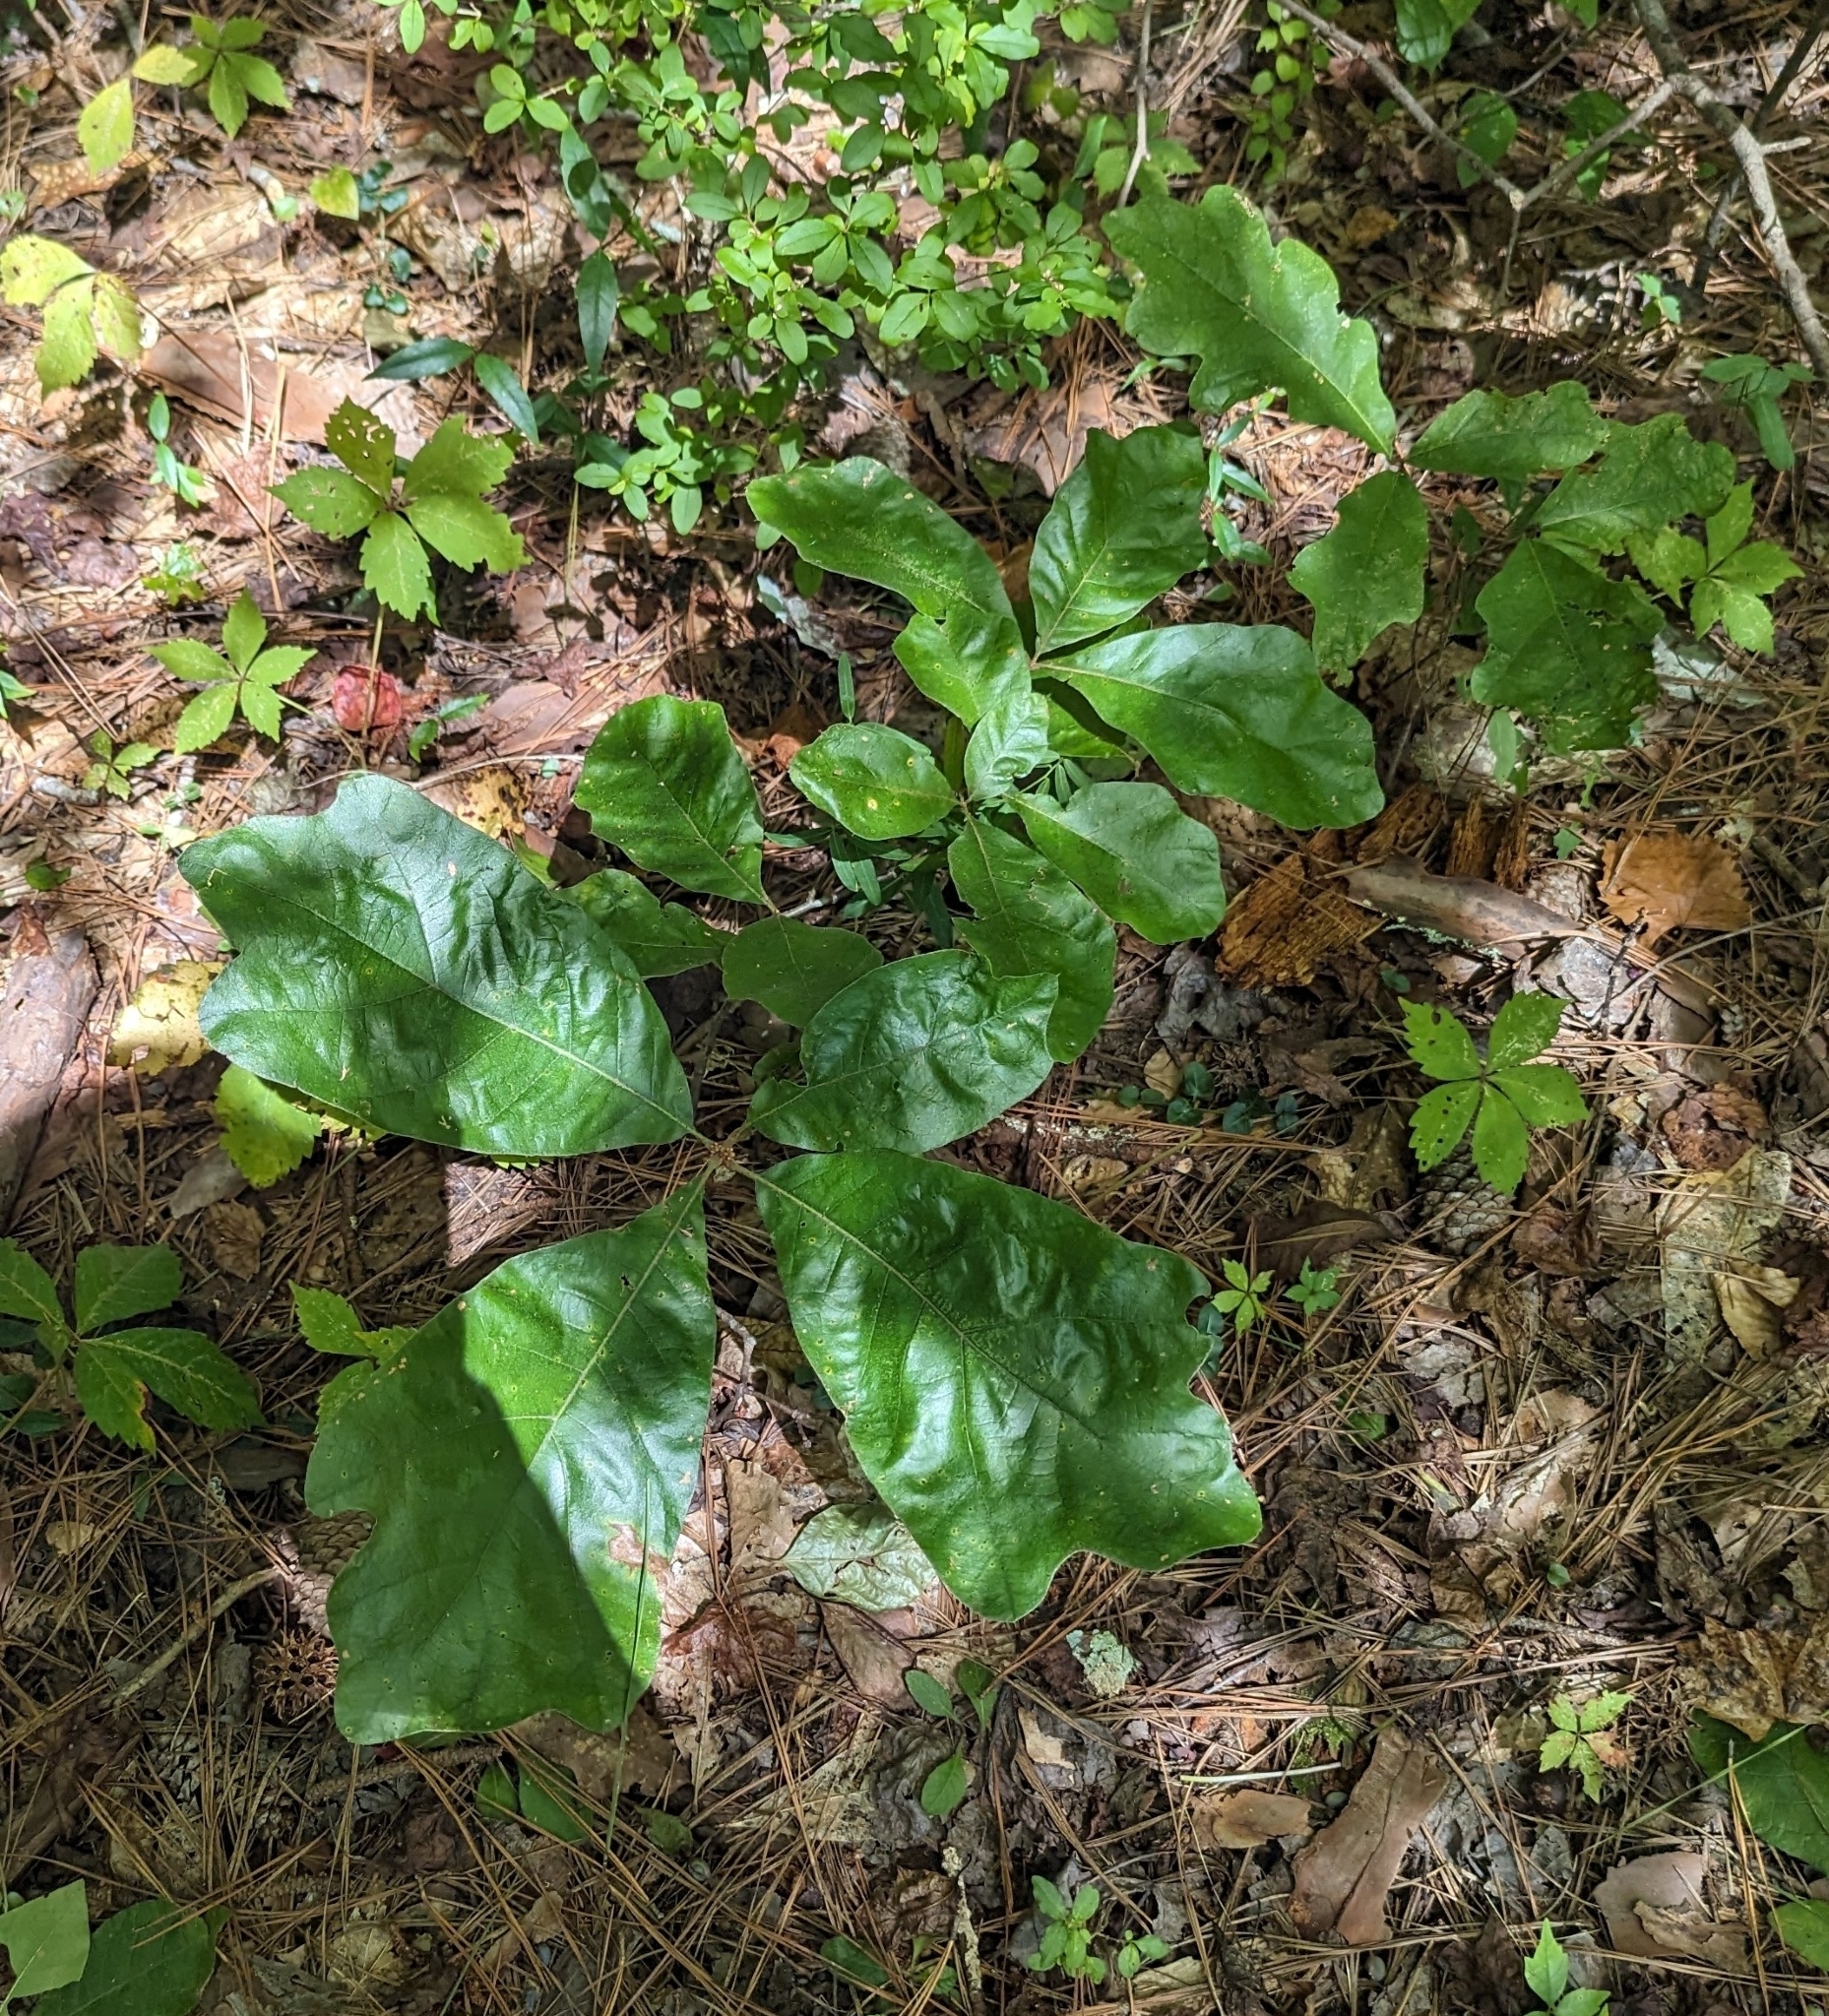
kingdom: Plantae
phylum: Tracheophyta
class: Magnoliopsida
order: Fagales
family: Fagaceae
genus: Quercus
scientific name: Quercus marilandica
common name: Blackjack oak
